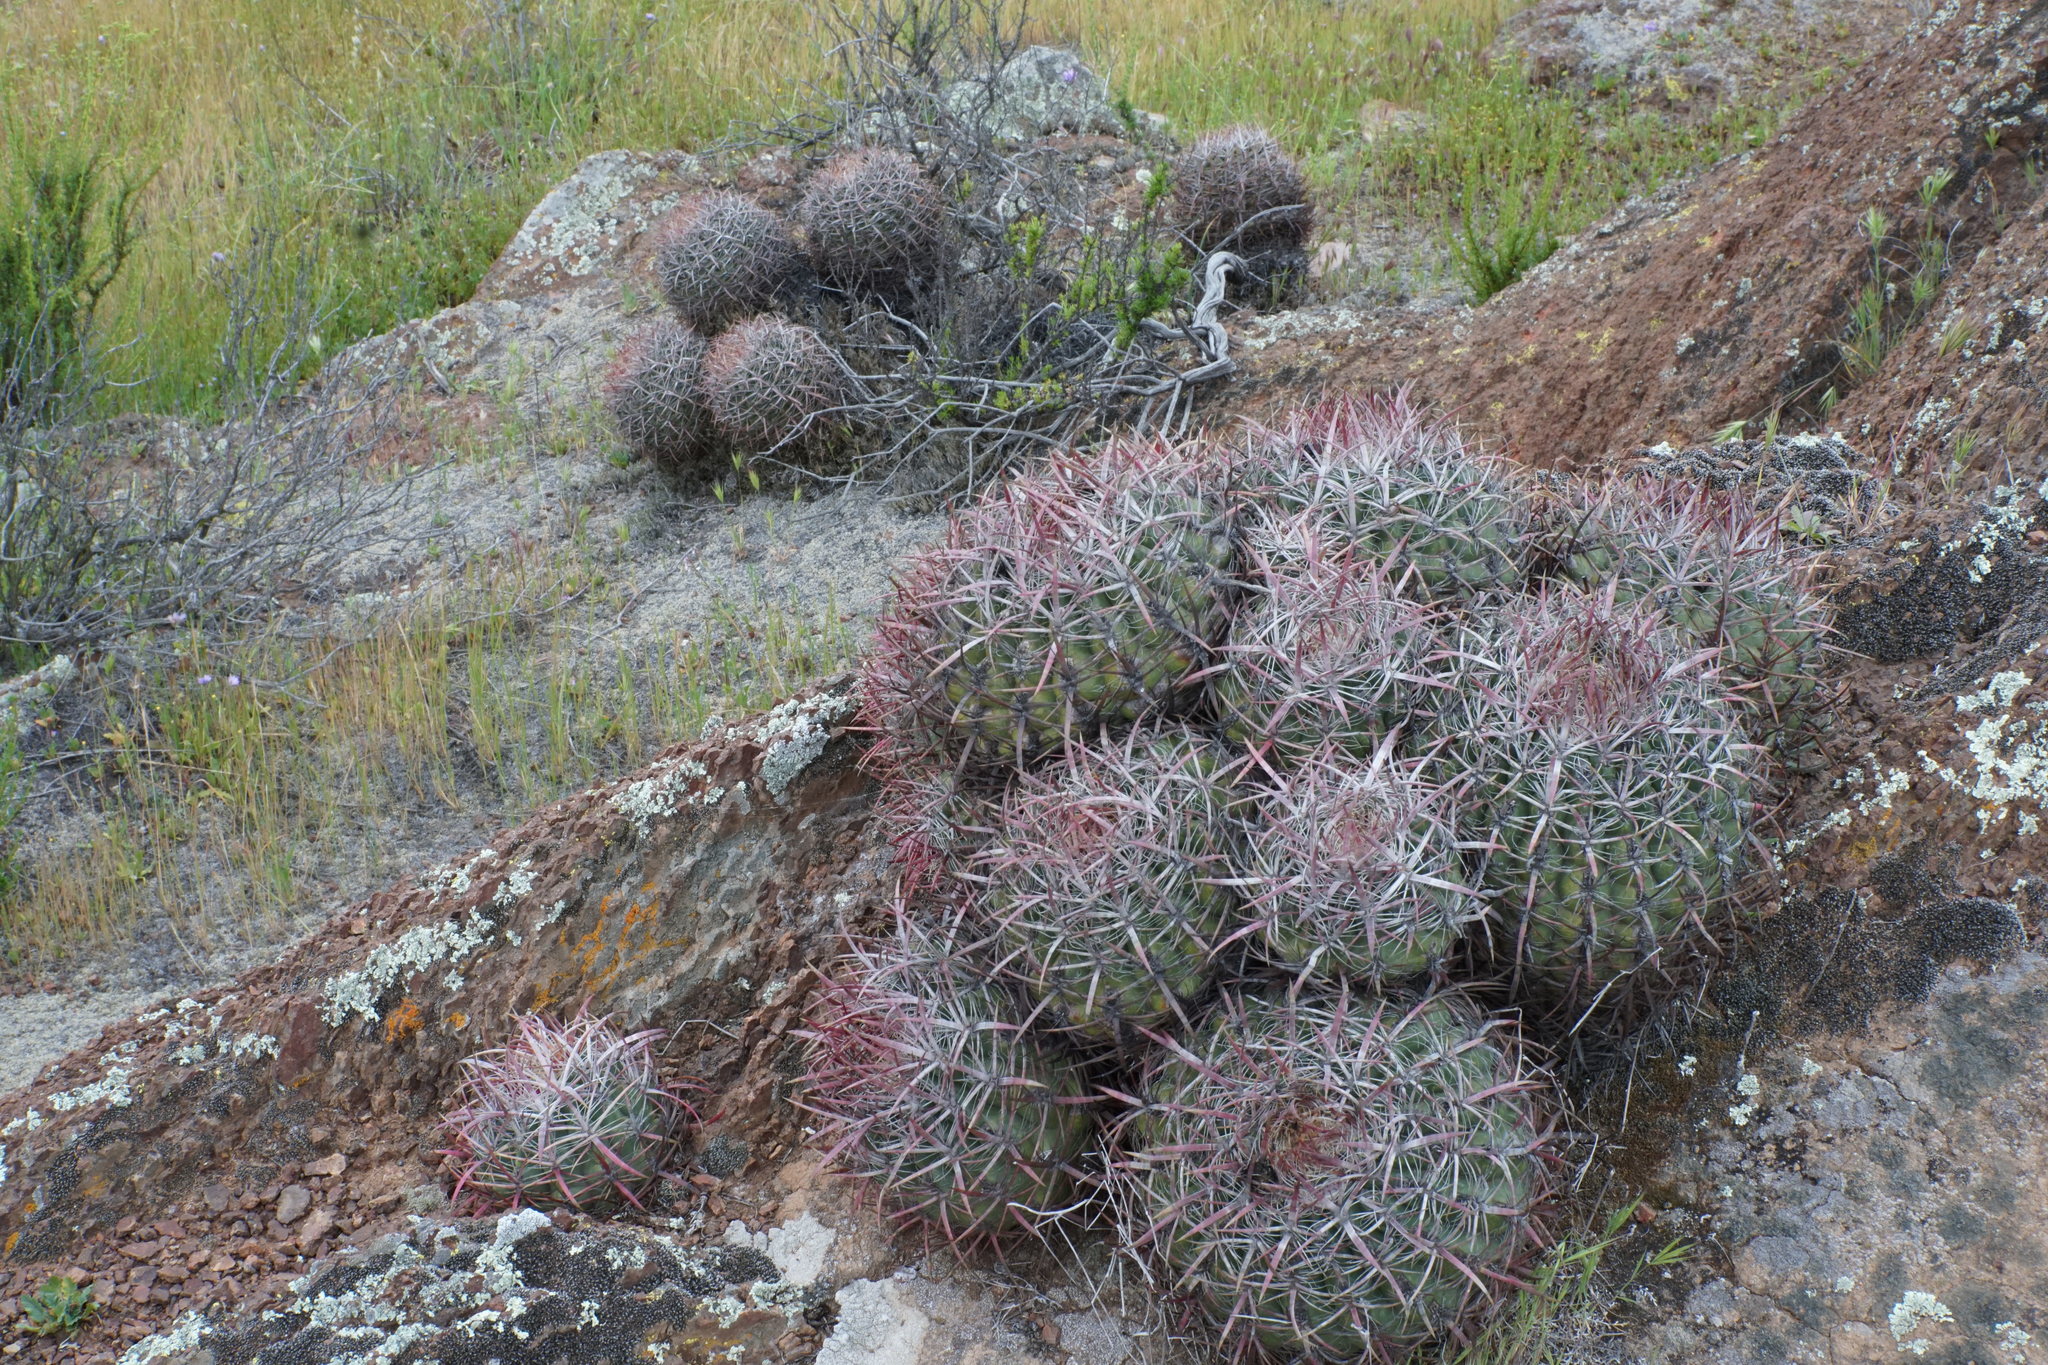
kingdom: Plantae
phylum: Tracheophyta
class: Magnoliopsida
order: Caryophyllales
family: Cactaceae
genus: Ferocactus
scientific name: Ferocactus viridescens
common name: San diego barrel cactus
